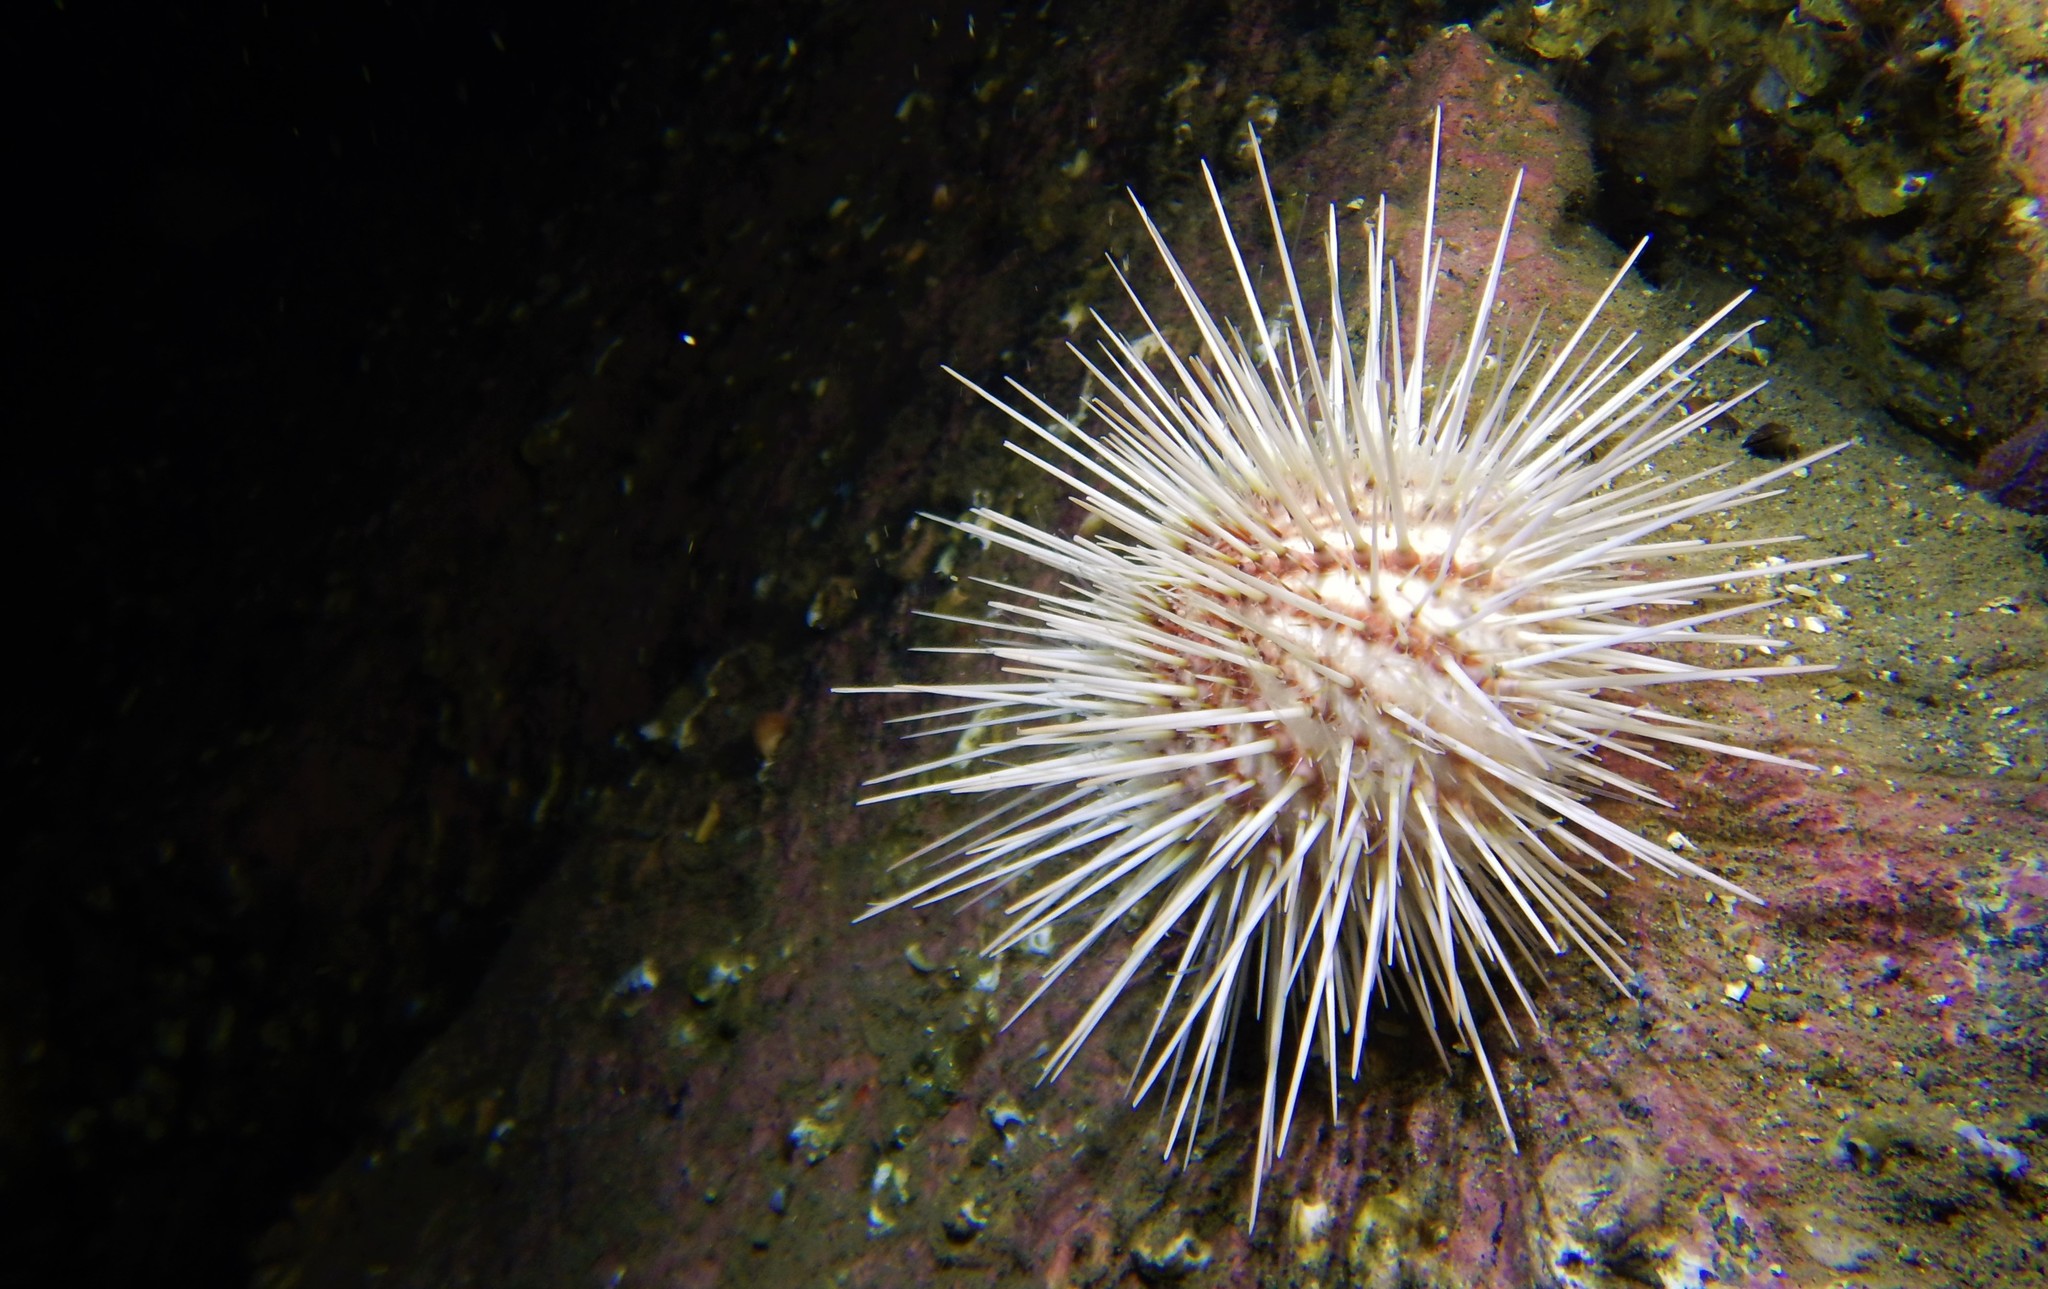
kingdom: Animalia
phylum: Echinodermata
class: Echinoidea
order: Camarodonta
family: Echinidae
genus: Gracilechinus
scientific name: Gracilechinus acutus
